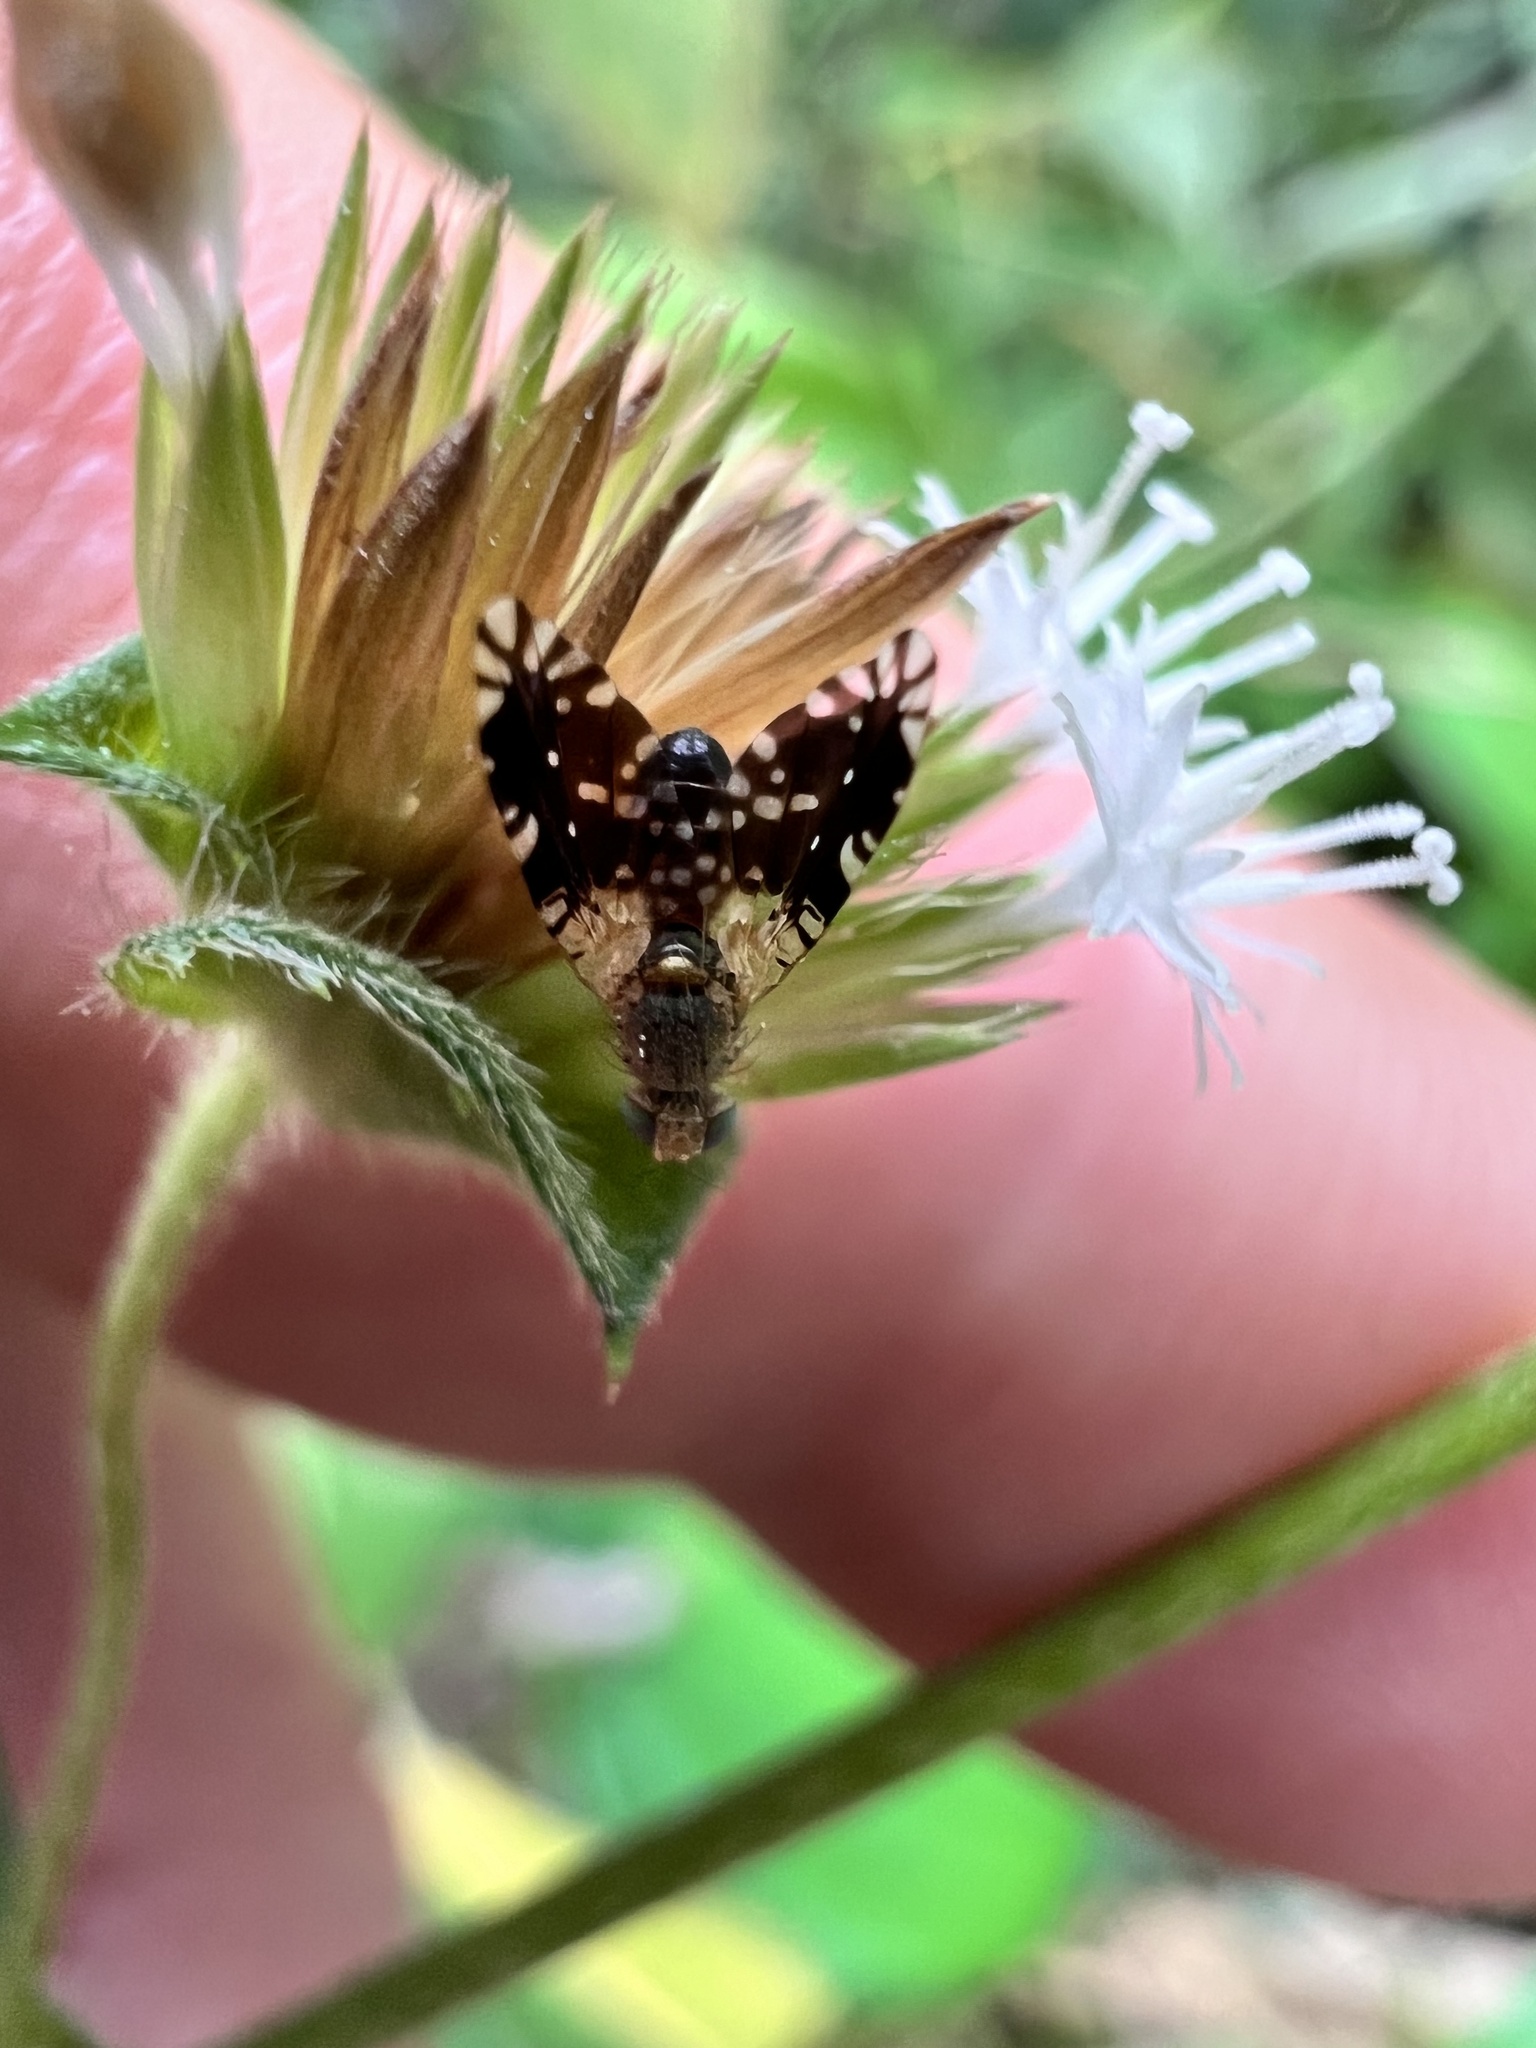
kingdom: Animalia
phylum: Arthropoda
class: Insecta
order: Diptera
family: Tephritidae
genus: Tetreuaresta
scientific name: Tetreuaresta obscuriventris
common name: Fruit fly
